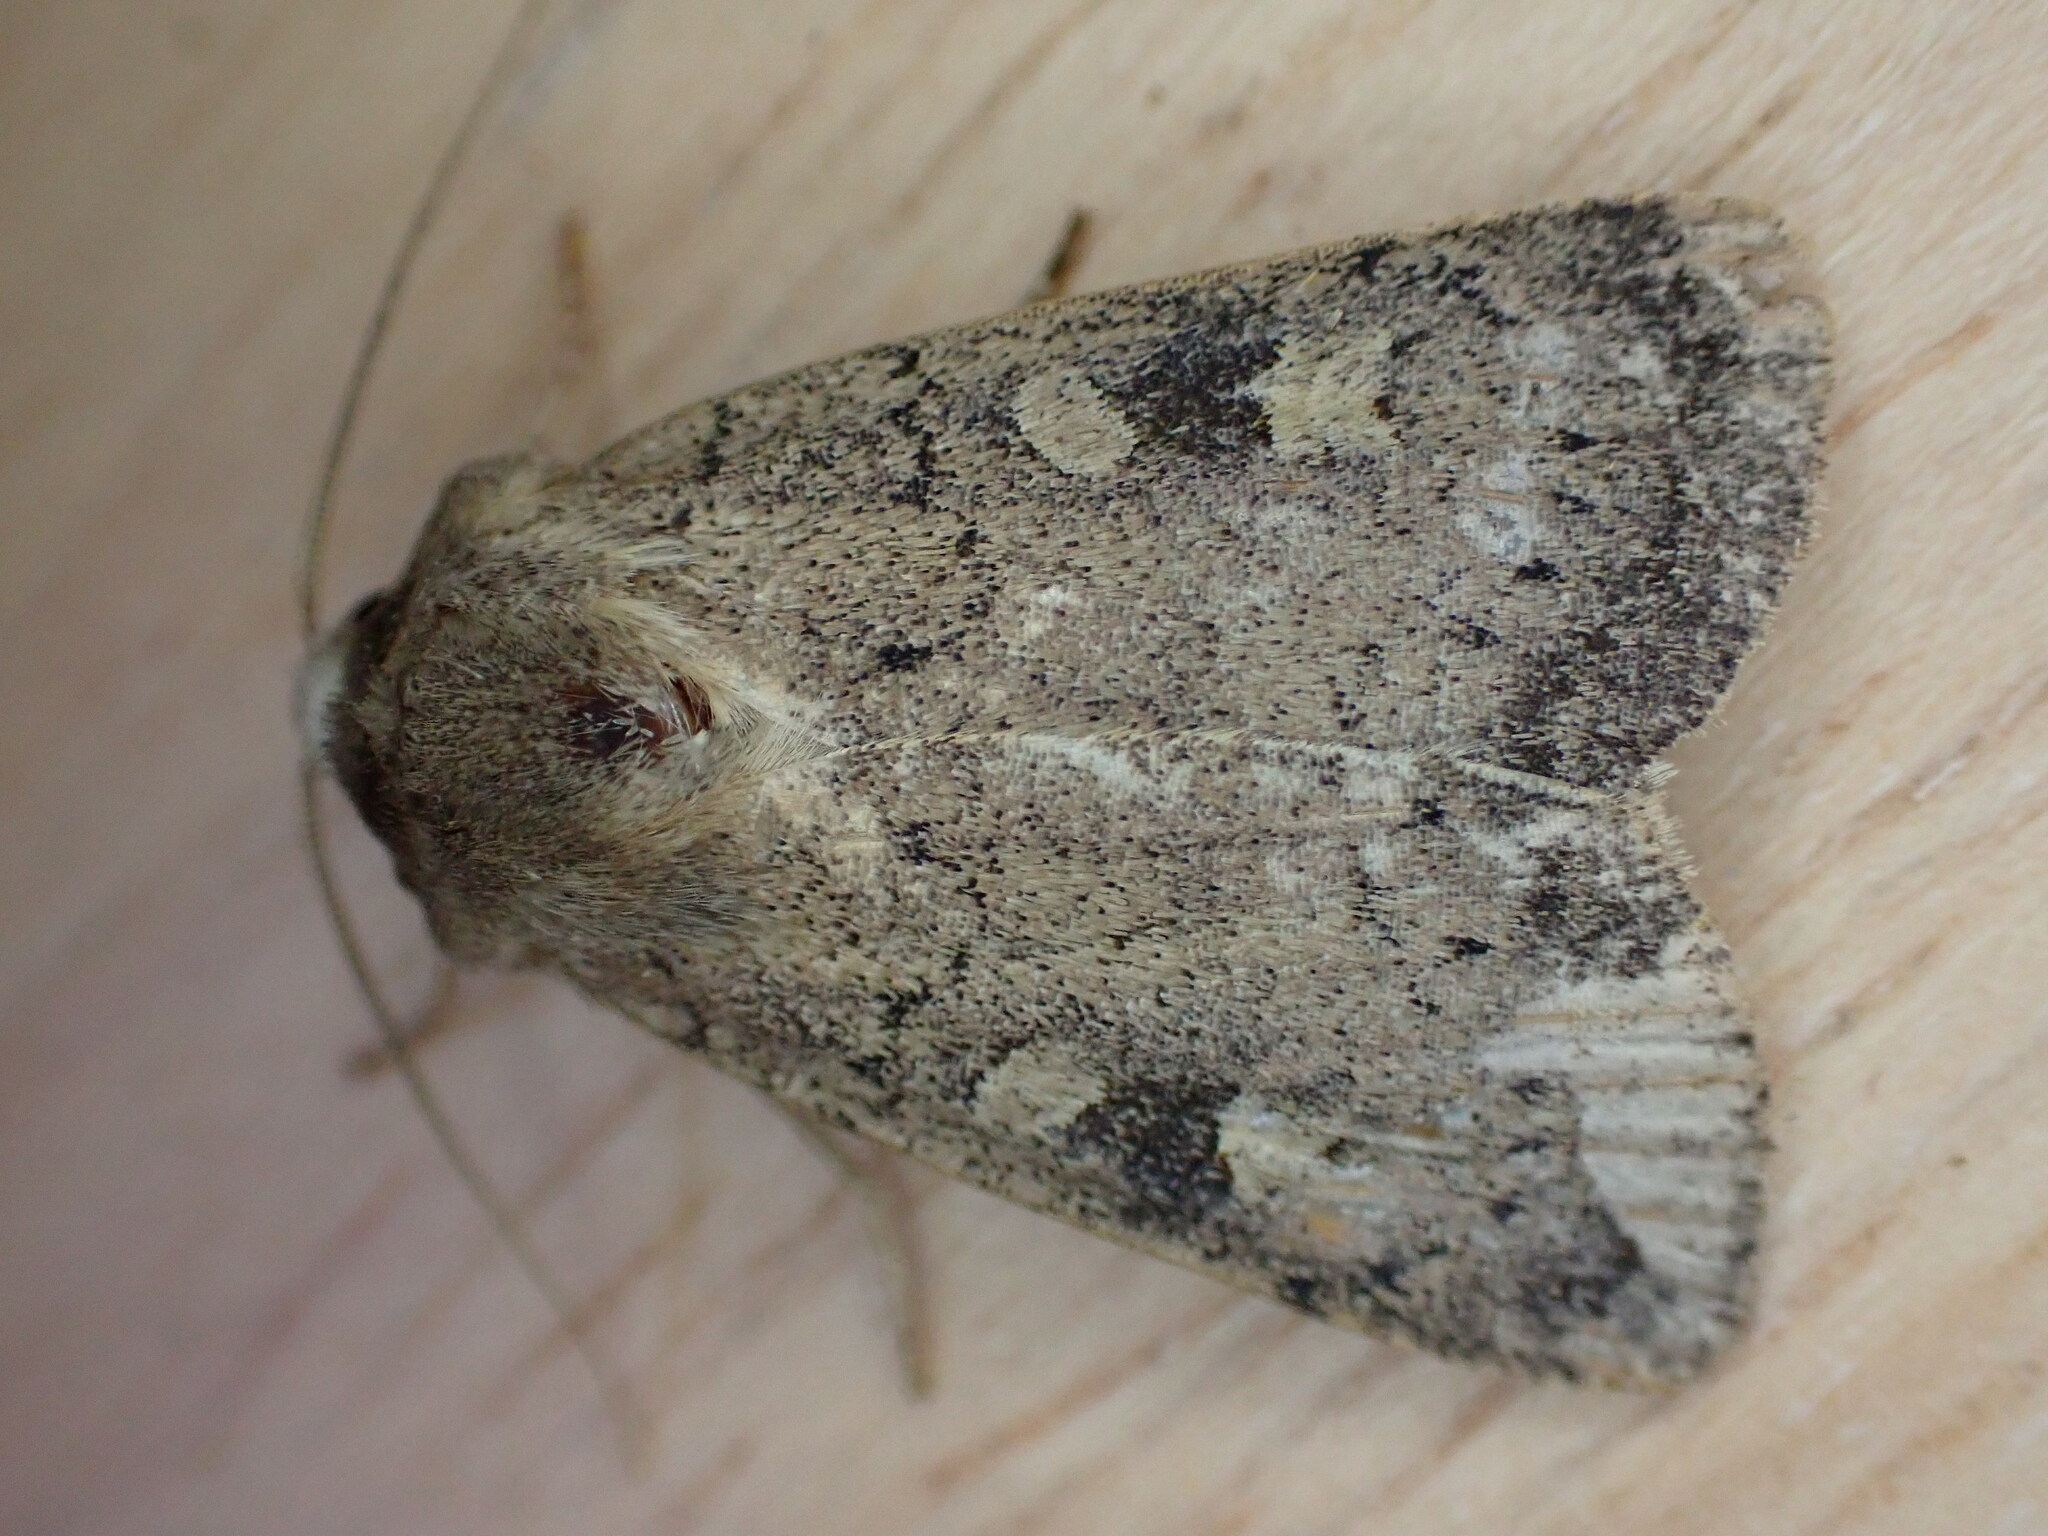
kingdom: Animalia
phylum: Arthropoda
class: Insecta
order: Lepidoptera
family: Noctuidae
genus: Xestia
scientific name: Xestia xanthographa
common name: Square-spot rustic
